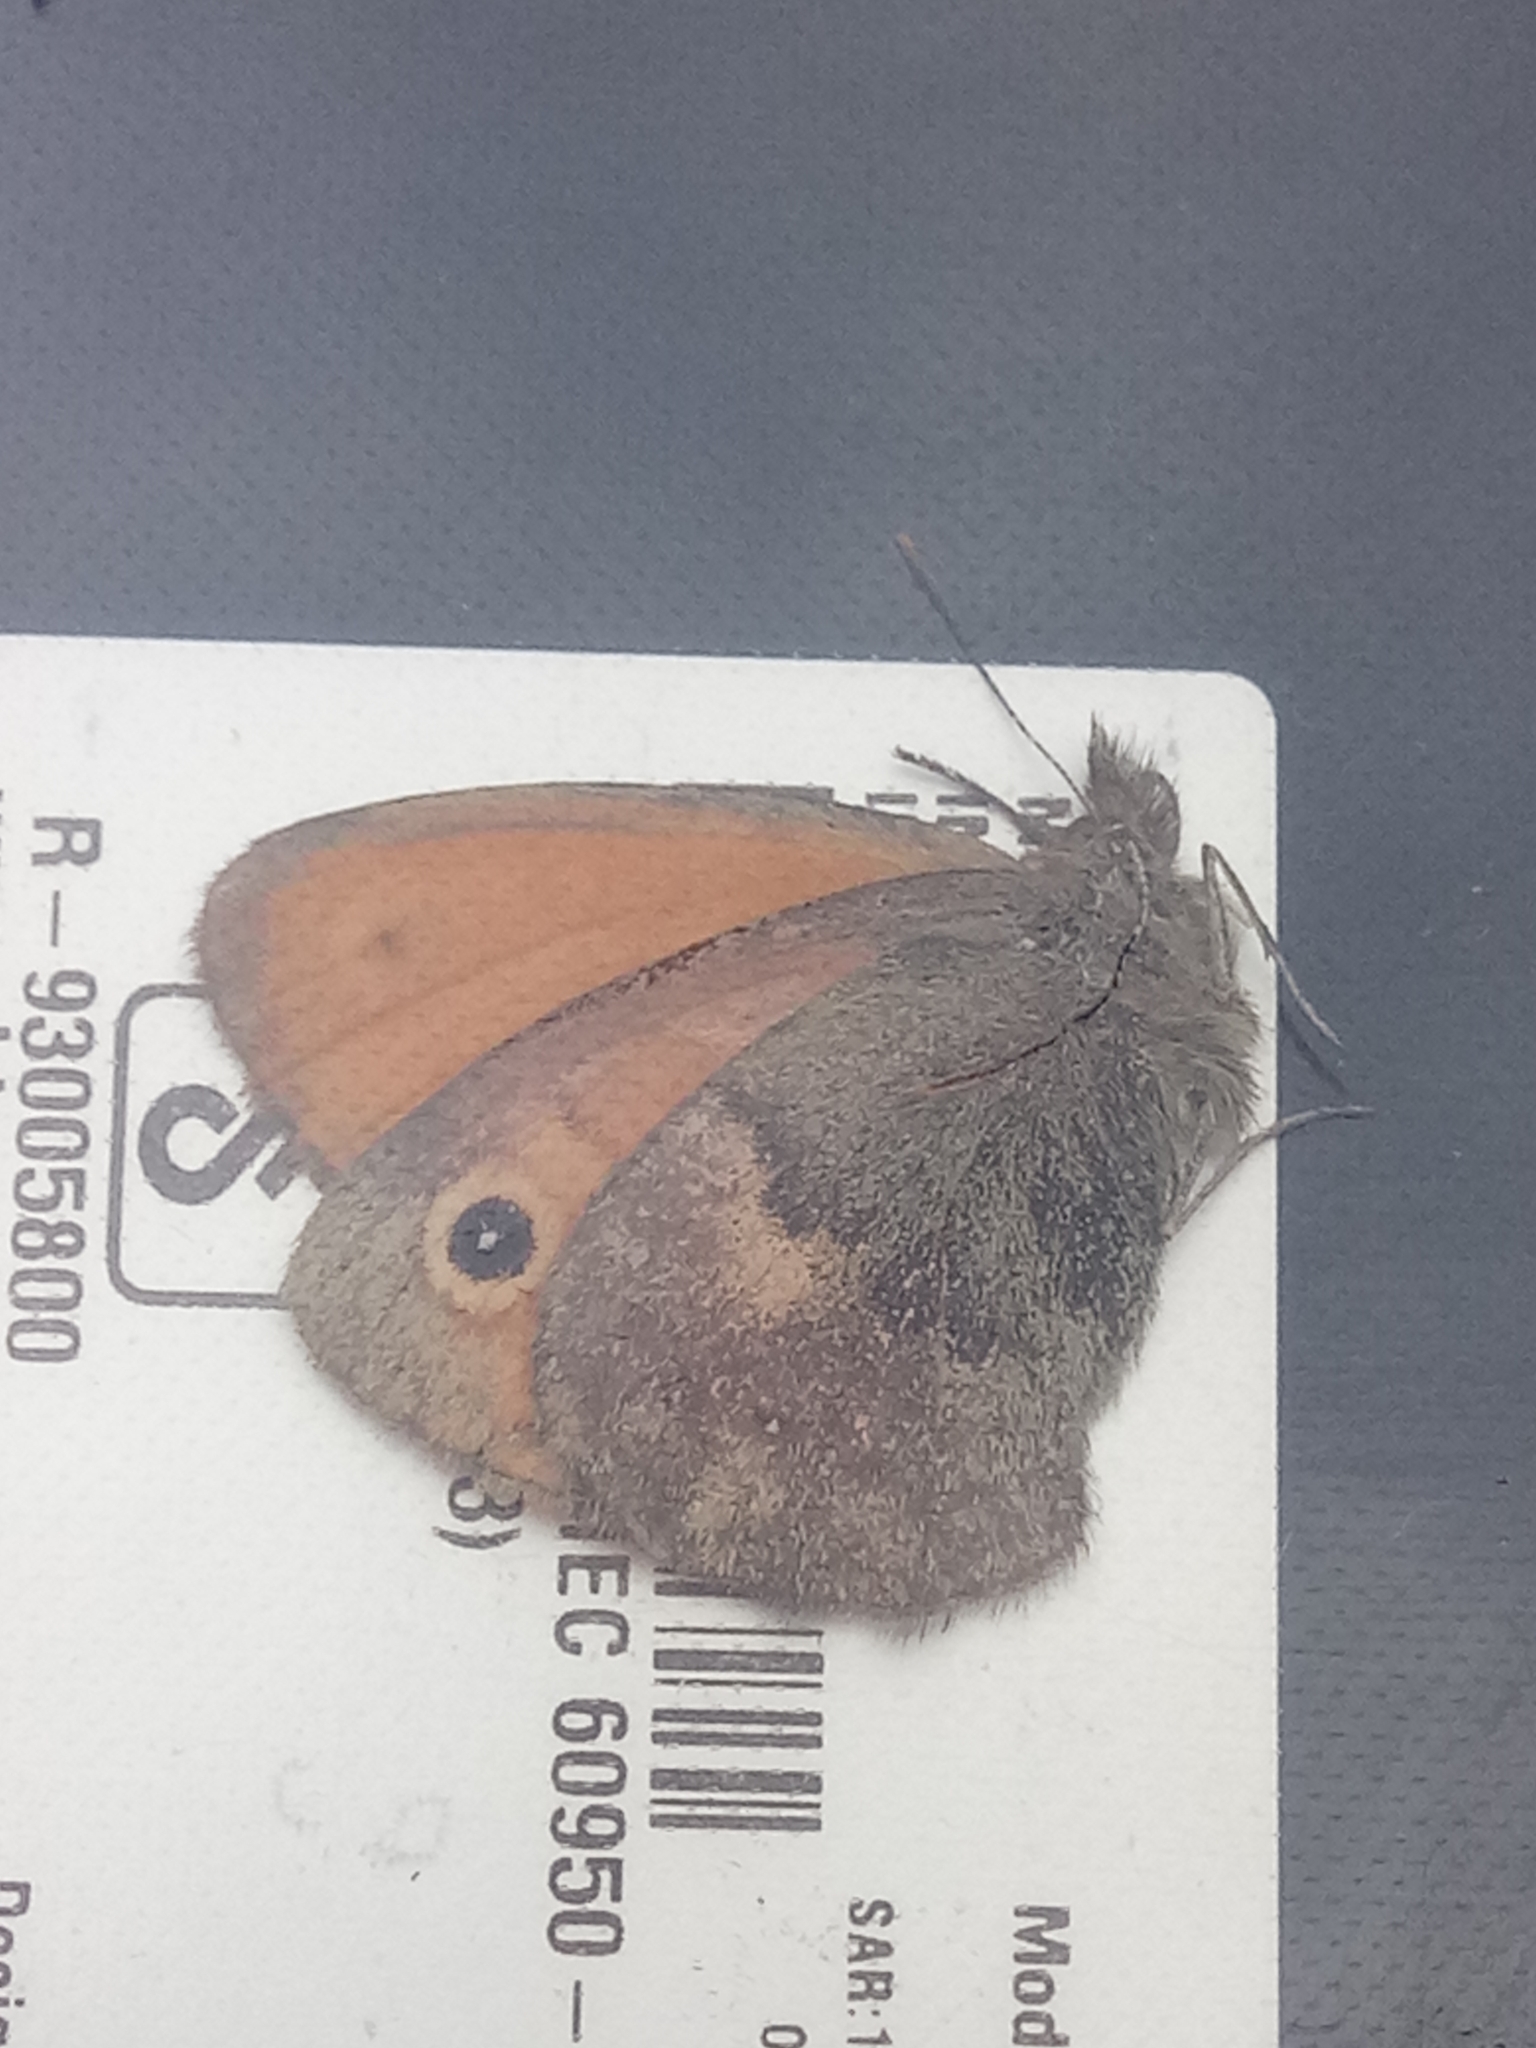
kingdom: Animalia
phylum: Arthropoda
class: Insecta
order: Lepidoptera
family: Nymphalidae
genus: Coenonympha
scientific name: Coenonympha pamphilus
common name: Small heath
